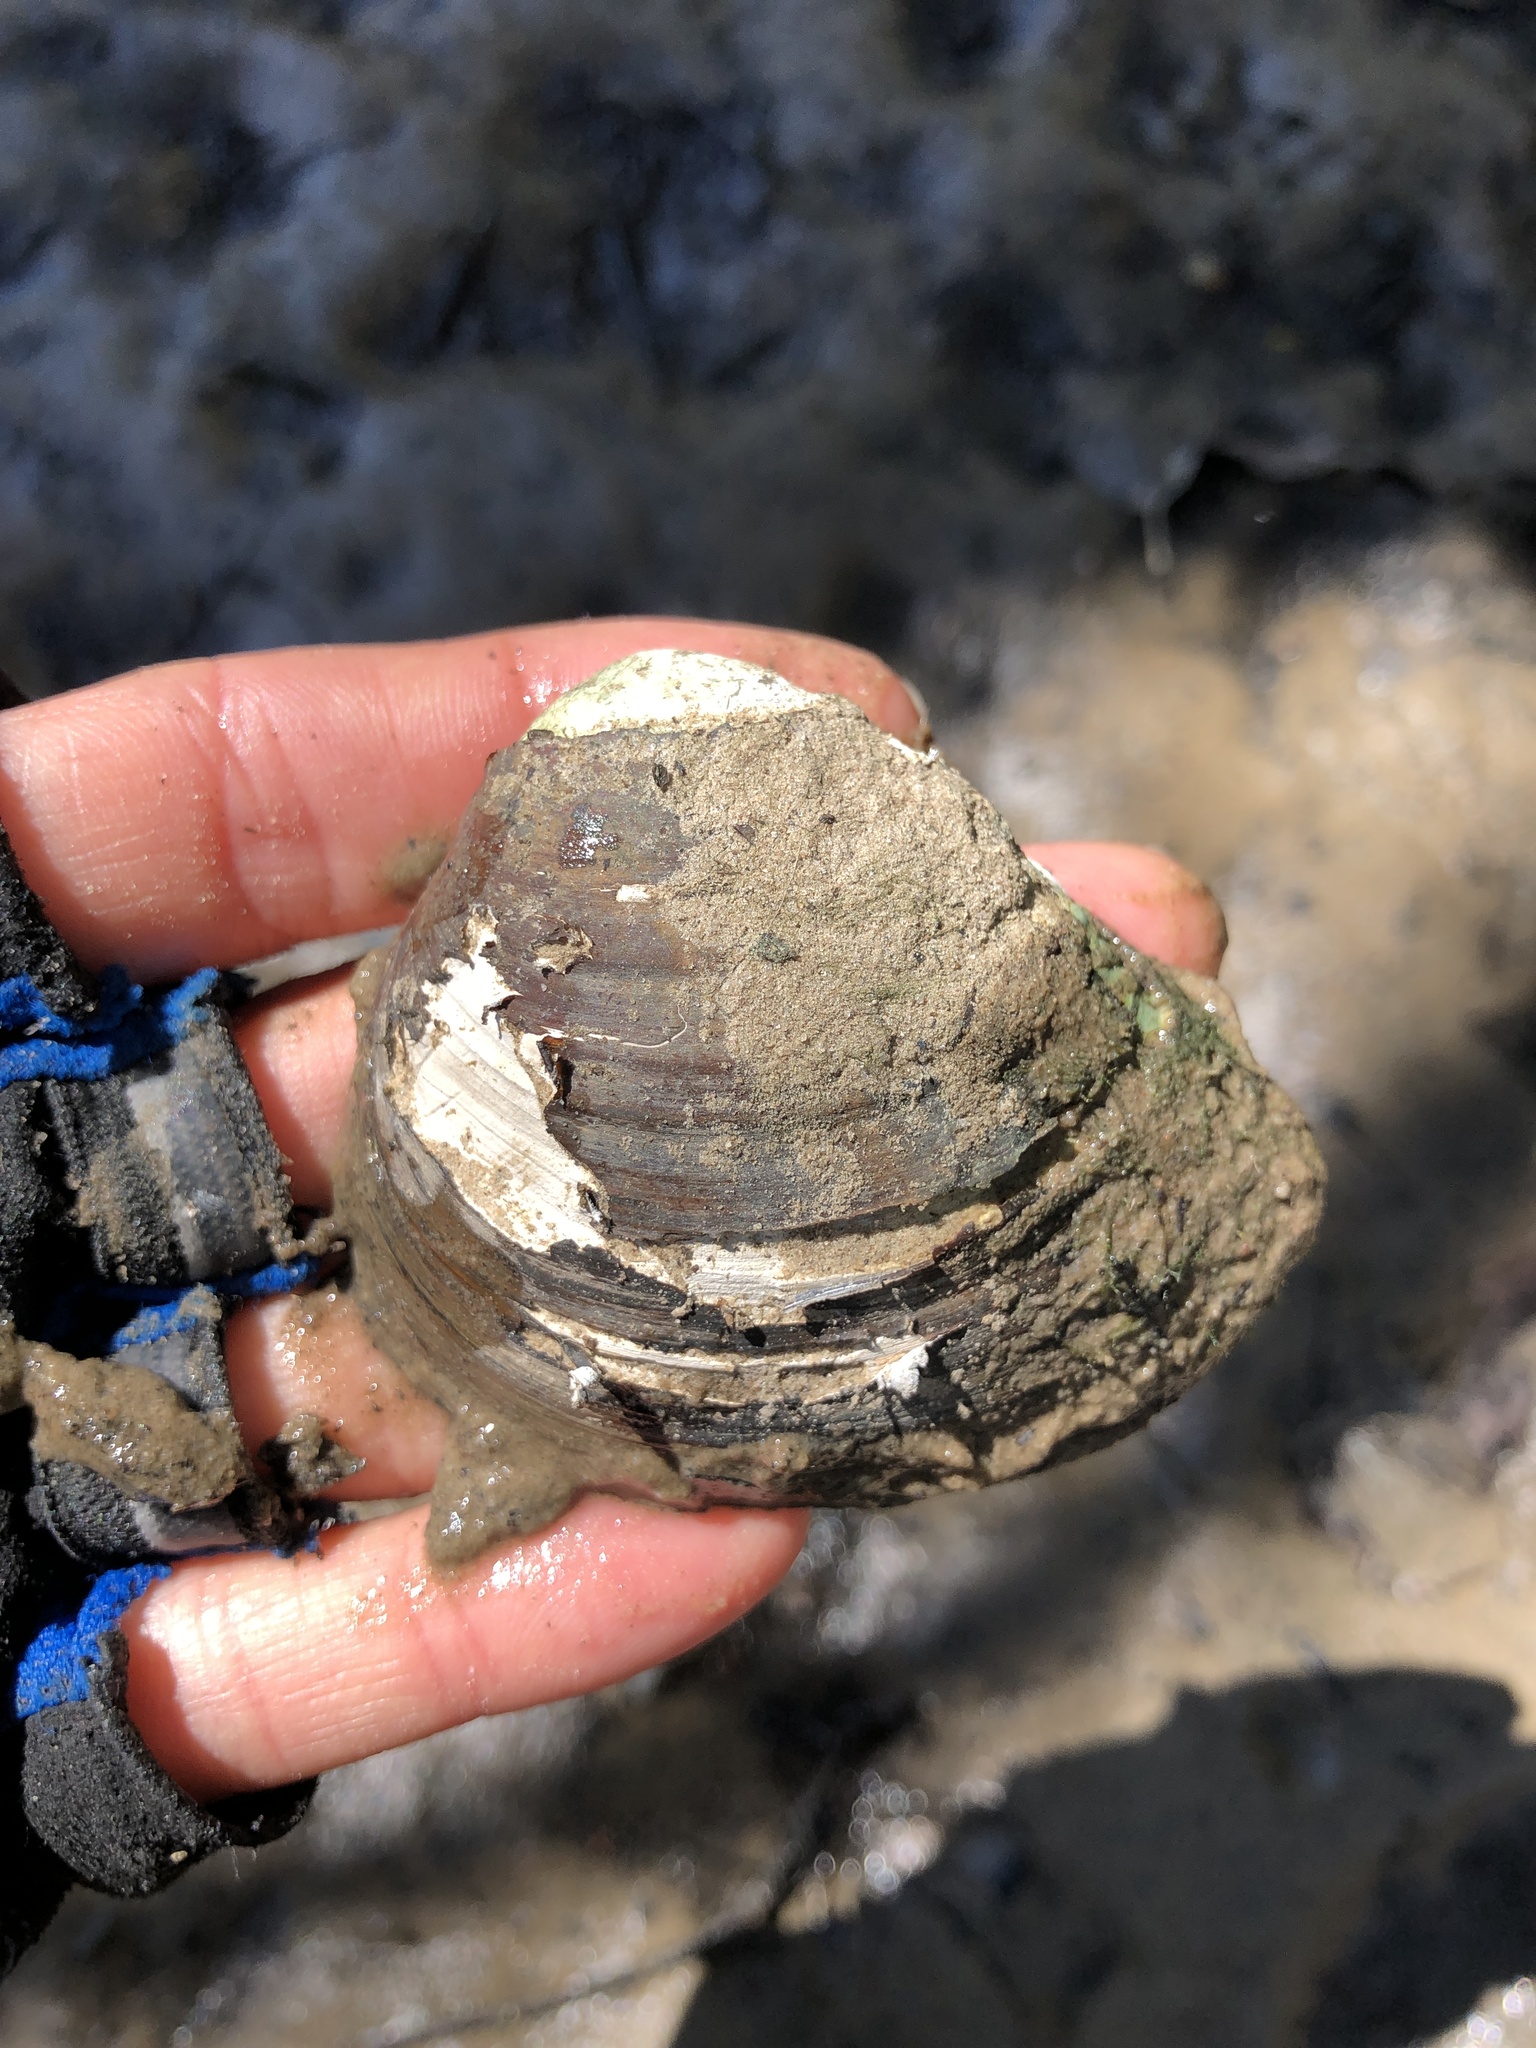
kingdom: Animalia
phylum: Mollusca
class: Bivalvia
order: Venerida
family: Mactridae
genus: Rangia
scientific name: Rangia cuneata
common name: Atlantic rangia
